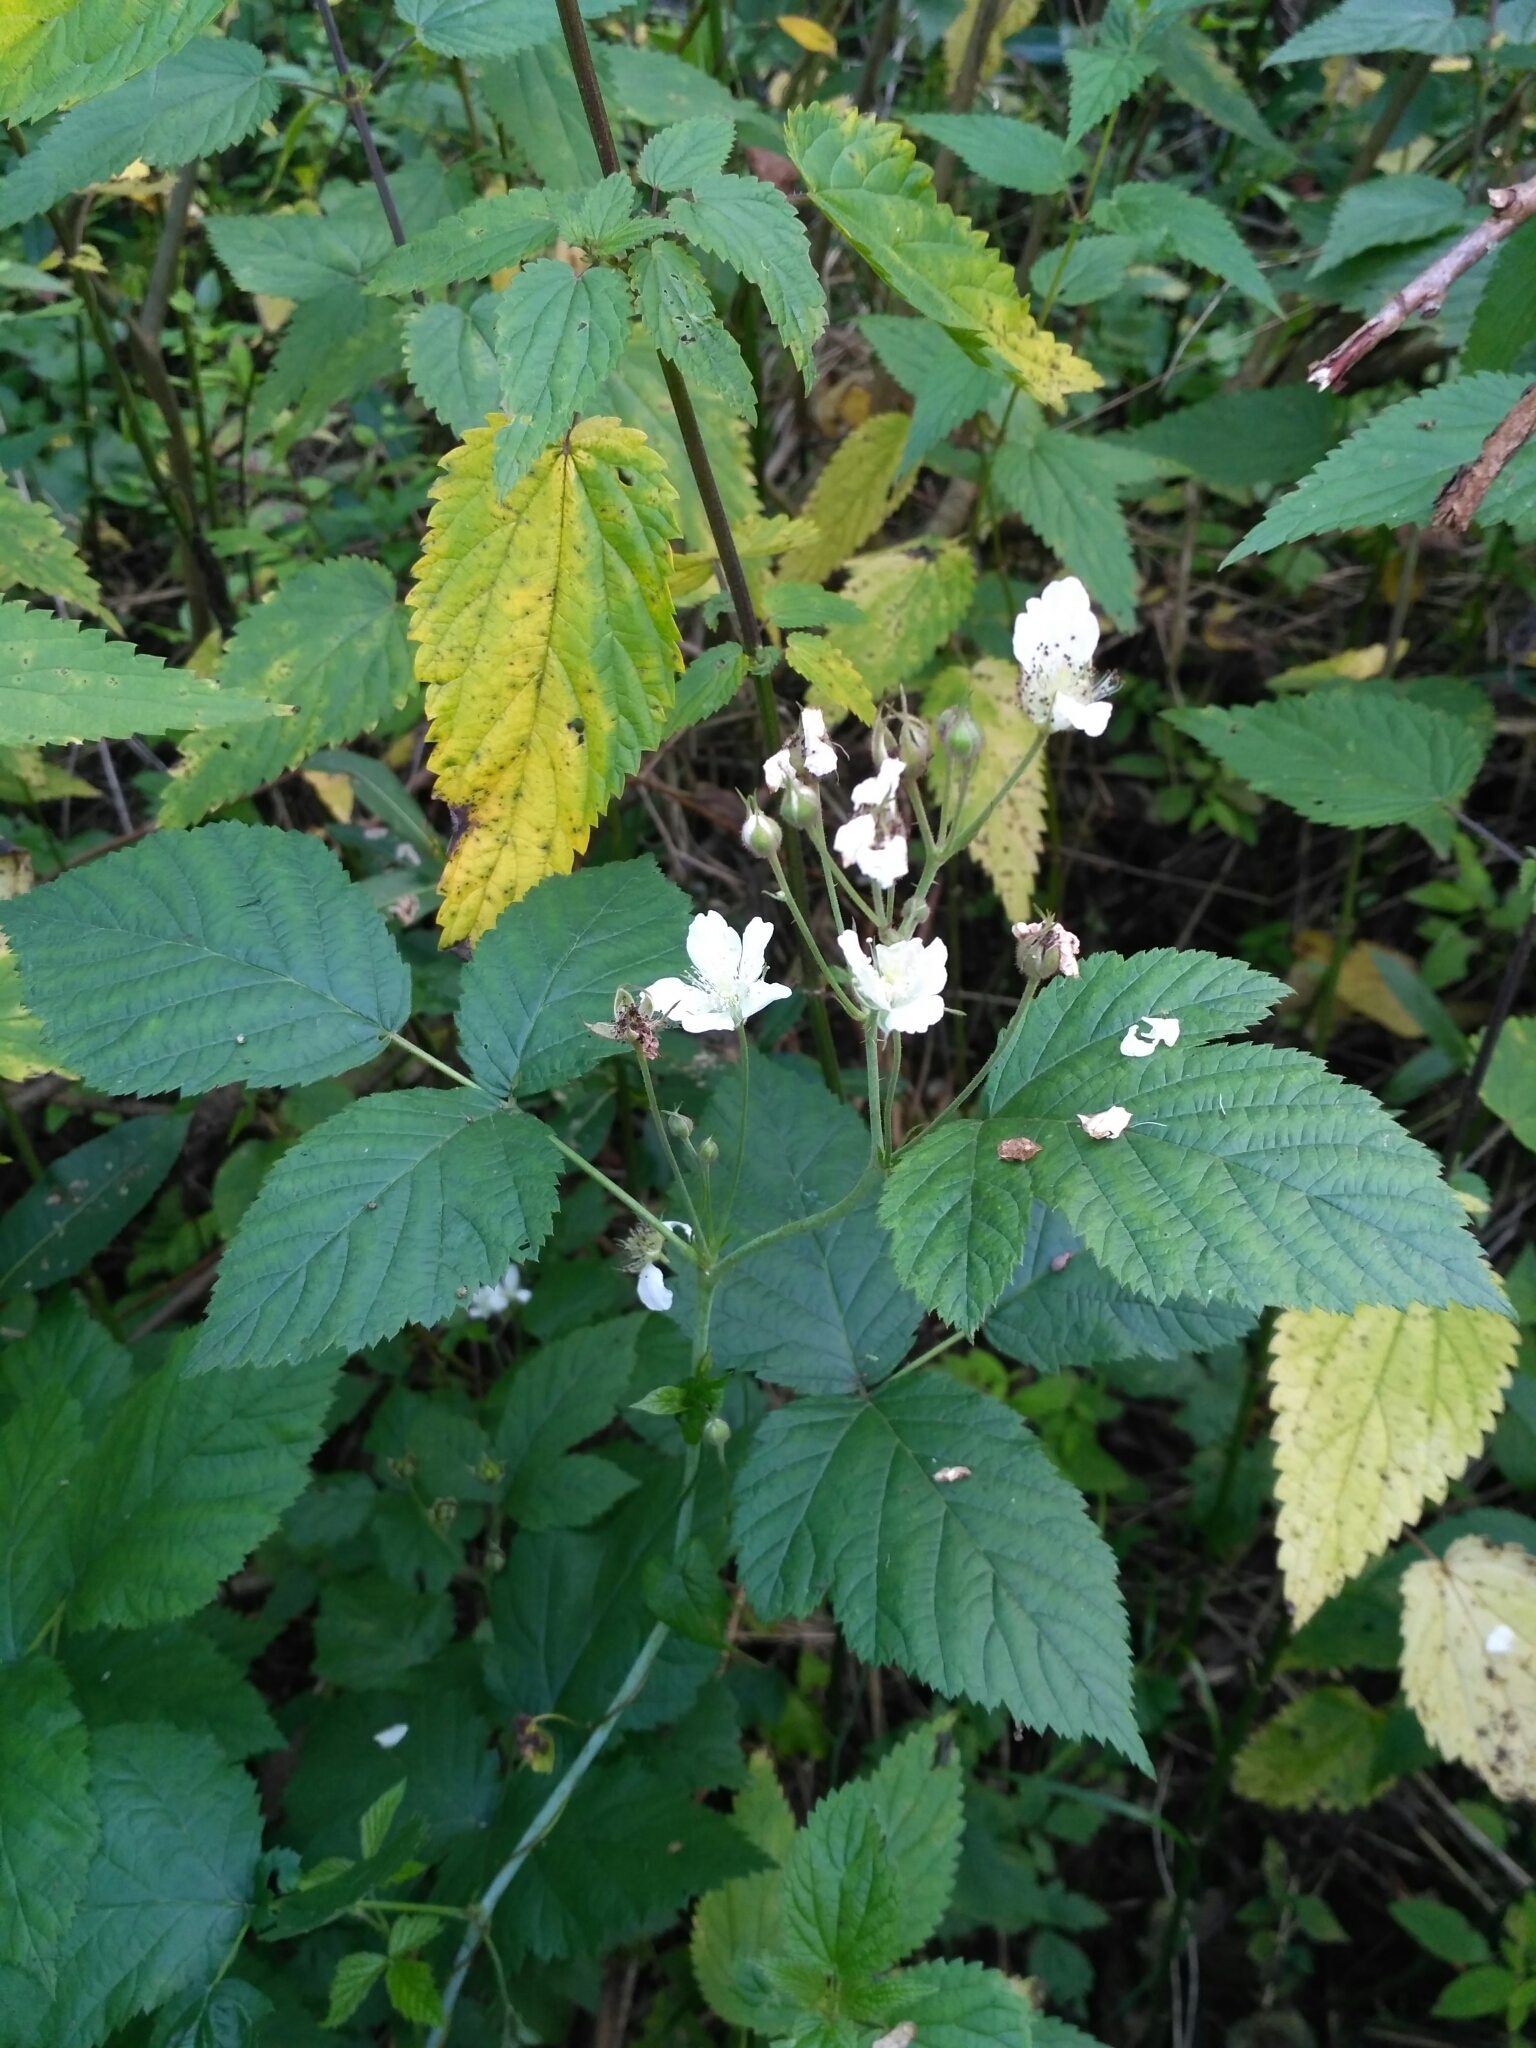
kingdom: Plantae
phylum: Tracheophyta
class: Magnoliopsida
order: Rosales
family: Rosaceae
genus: Rubus
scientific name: Rubus caesius
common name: Dewberry
